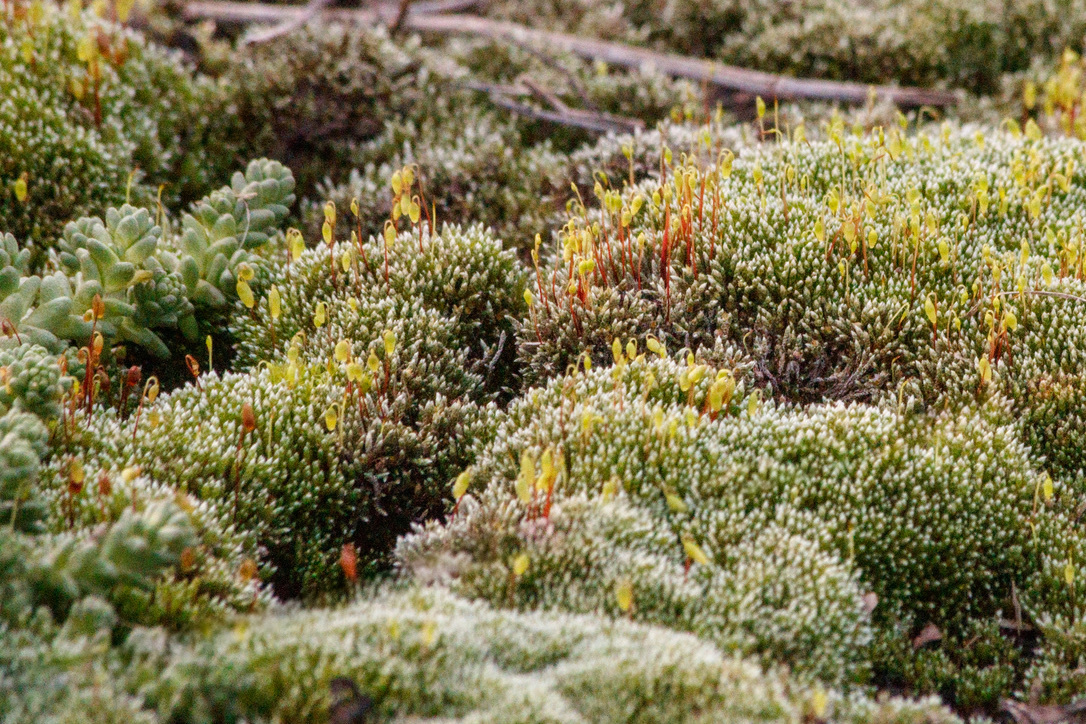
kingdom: Plantae
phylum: Bryophyta
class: Bryopsida
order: Bryales
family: Bryaceae
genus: Bryum
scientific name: Bryum argenteum
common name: Silver-moss
